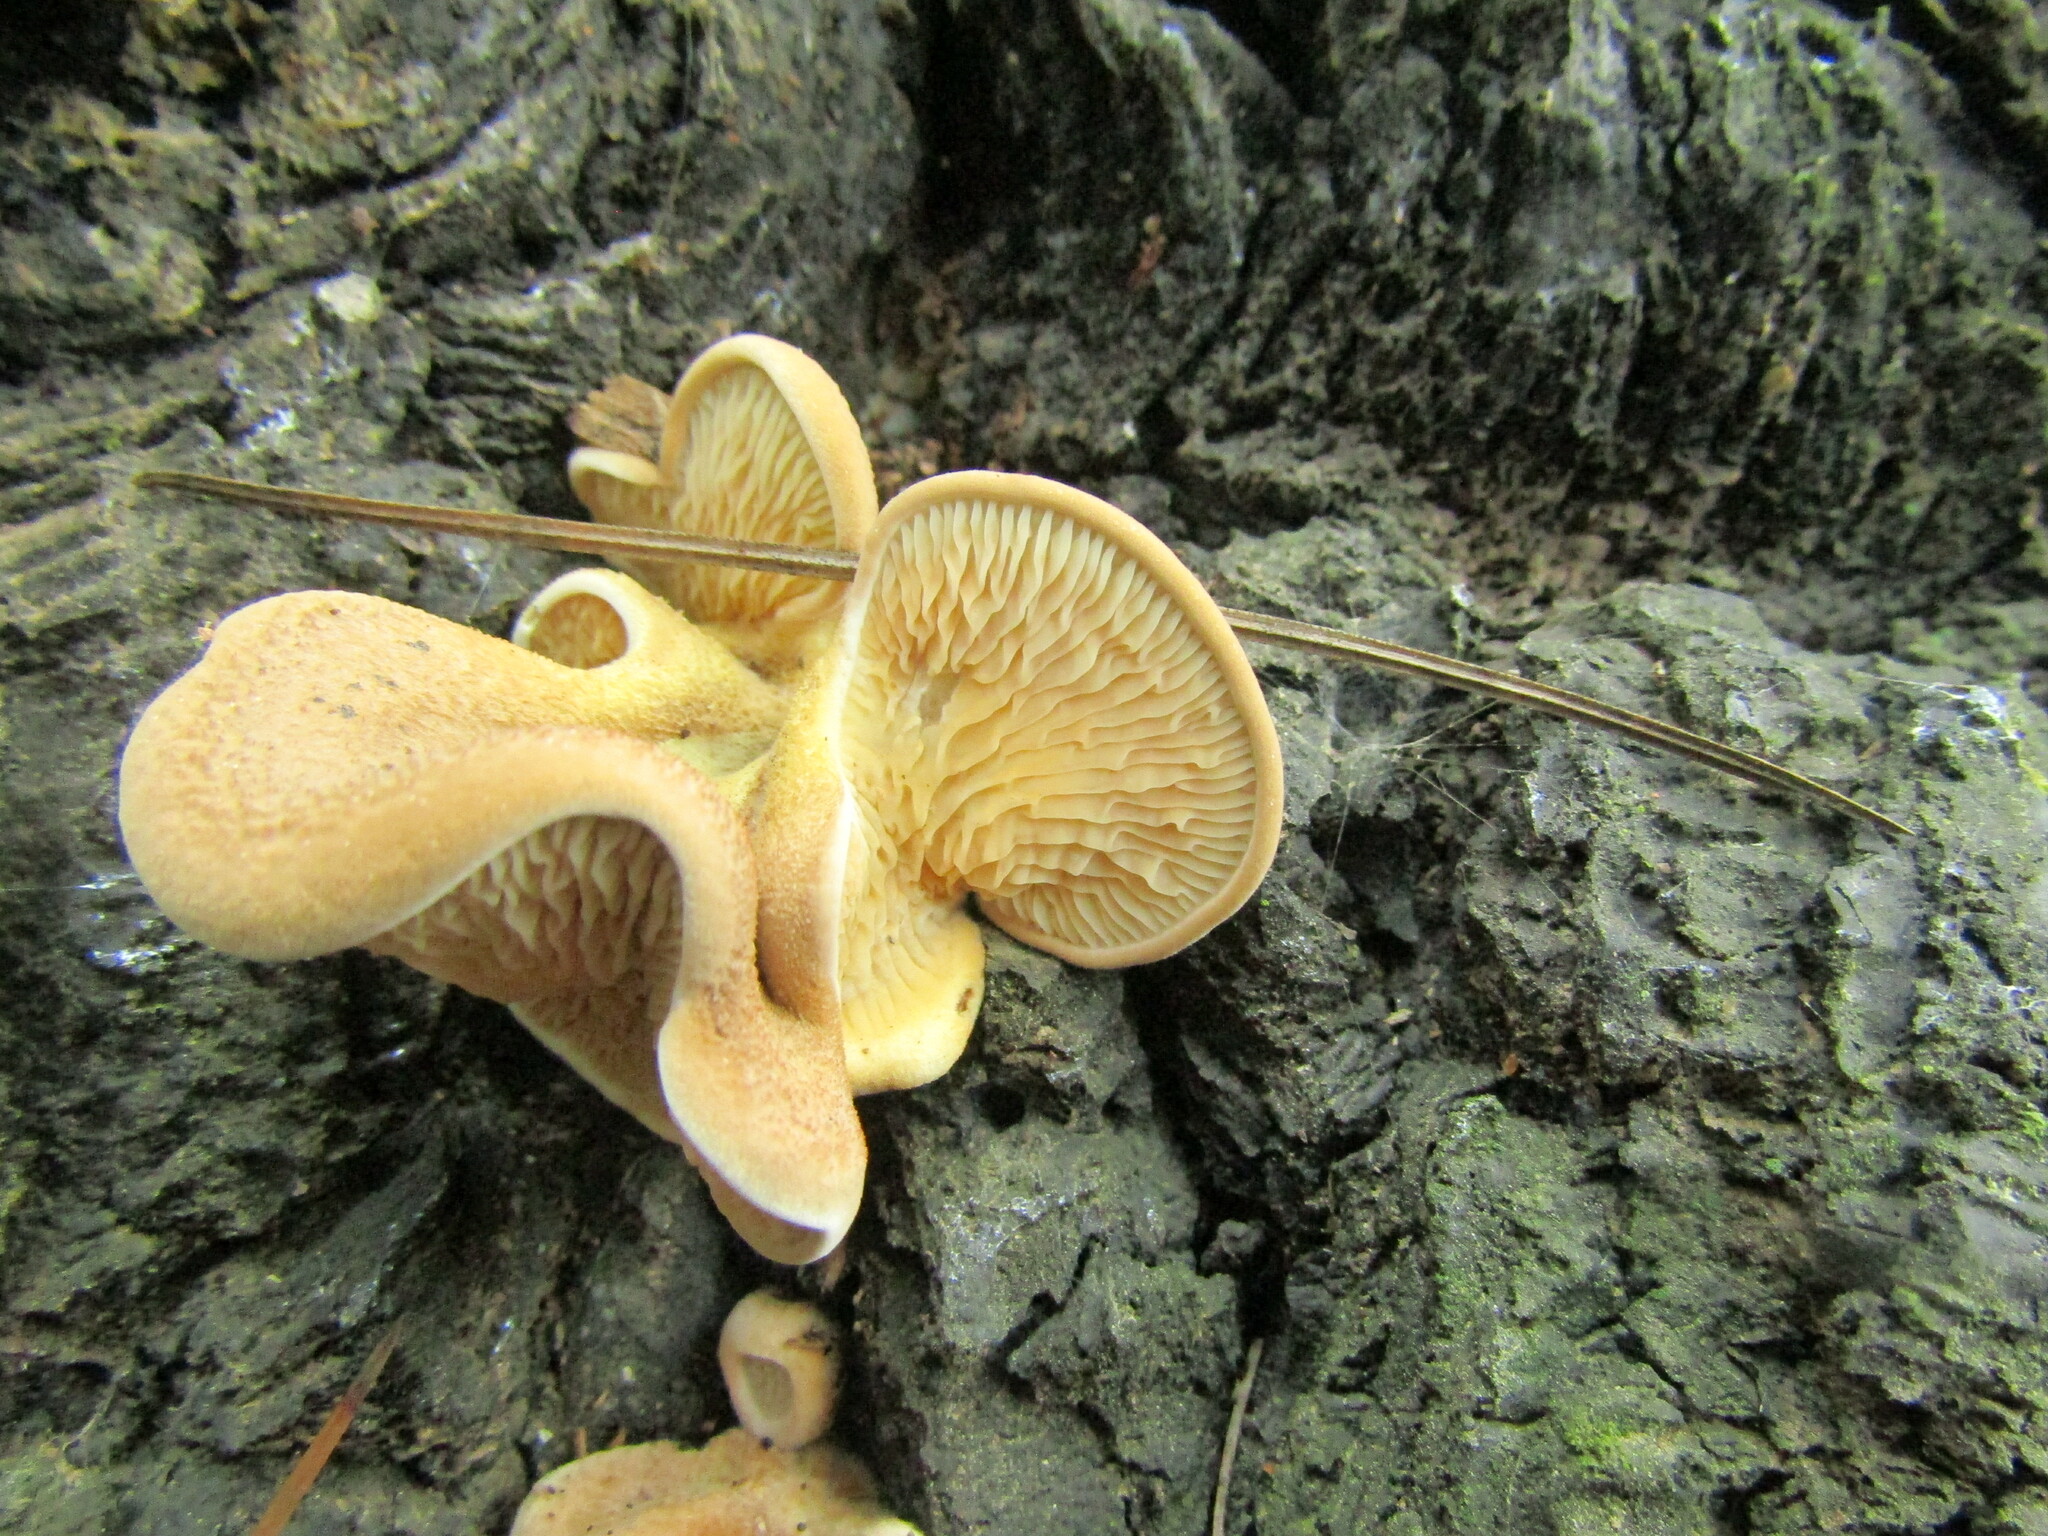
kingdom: Fungi
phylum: Basidiomycota
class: Agaricomycetes
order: Boletales
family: Tapinellaceae
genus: Tapinella
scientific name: Tapinella panuoides
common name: Oyster rollrim
